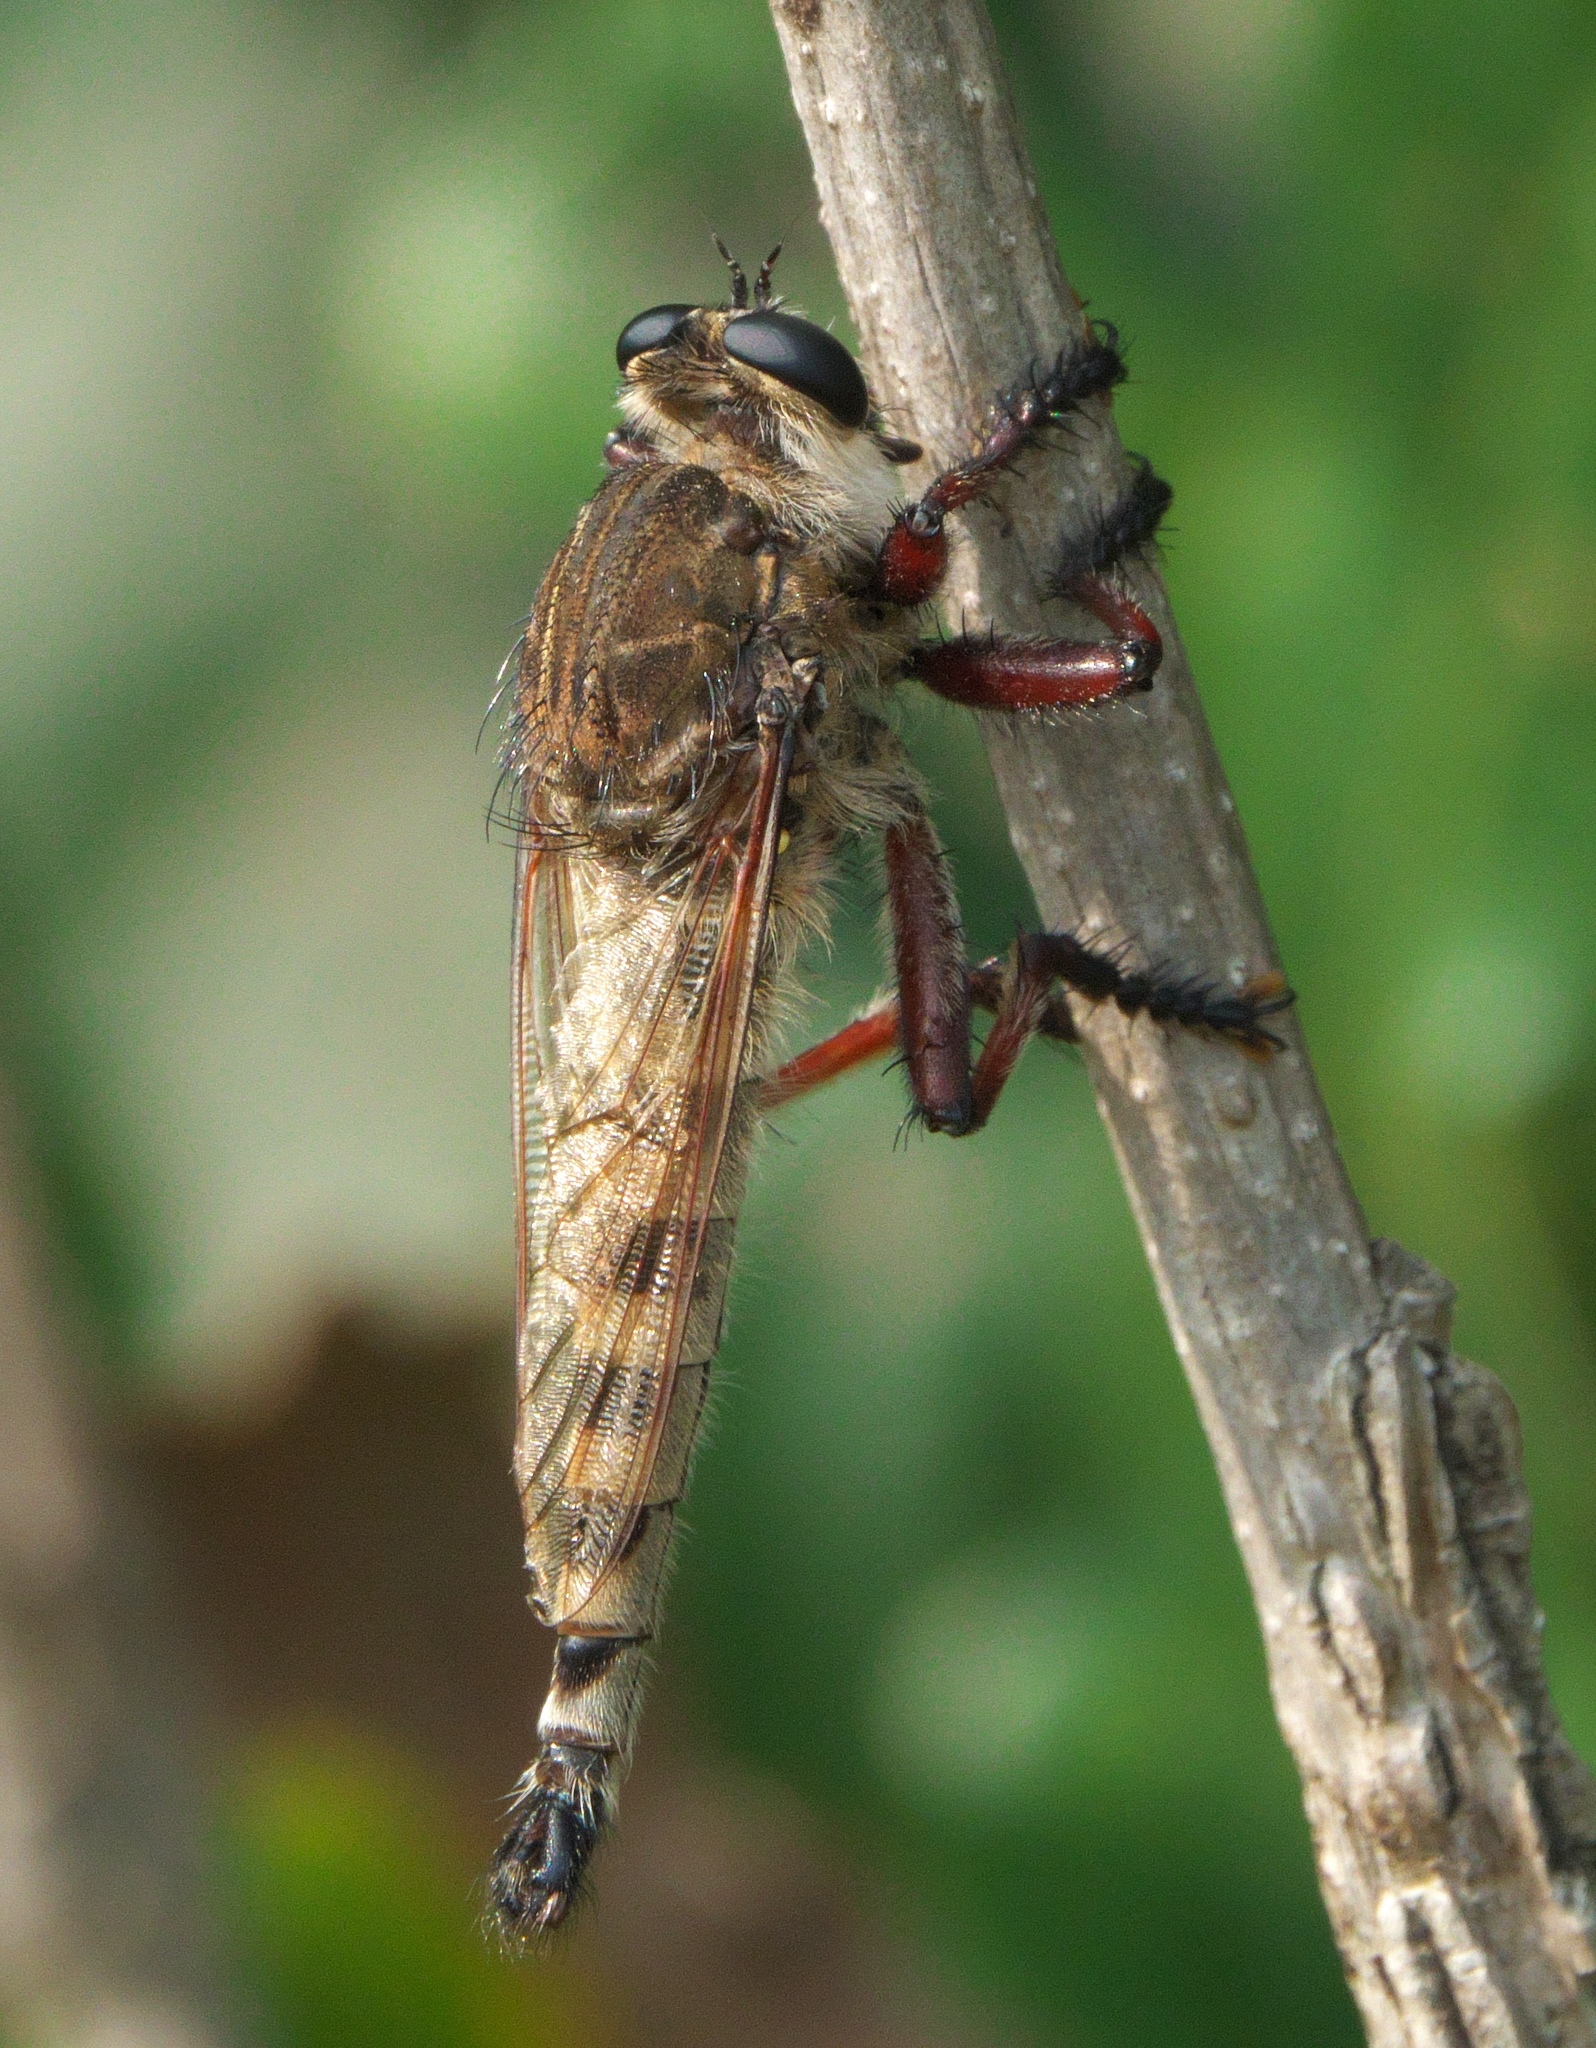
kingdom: Animalia
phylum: Arthropoda
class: Insecta
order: Diptera
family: Asilidae
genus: Promachus
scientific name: Promachus hinei
